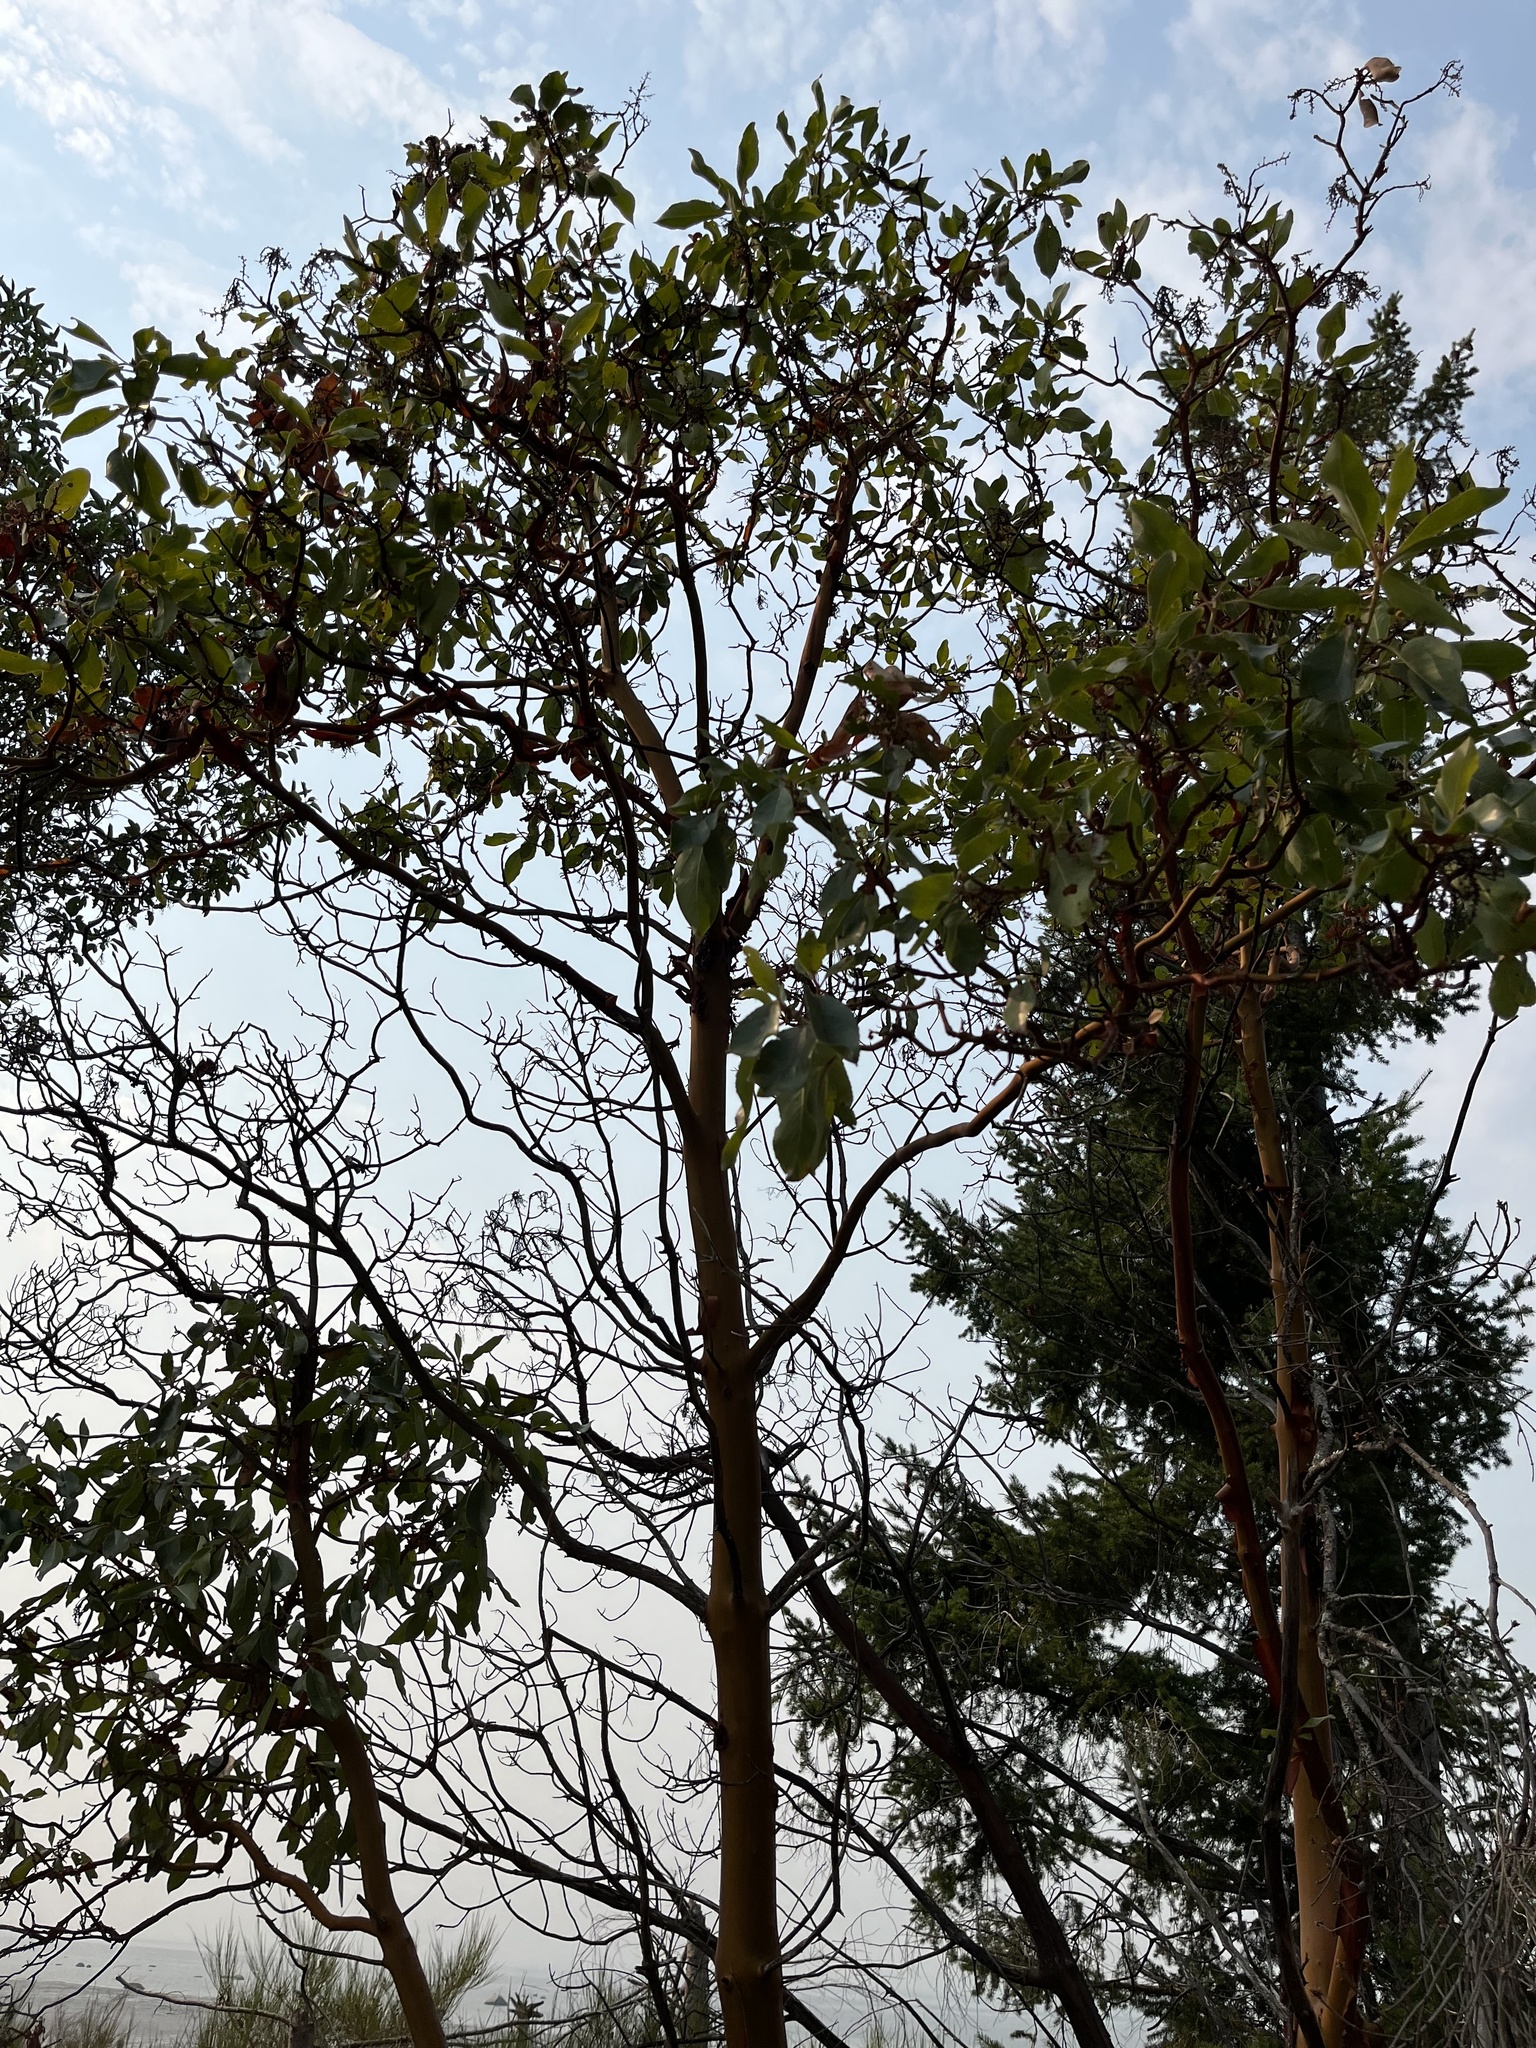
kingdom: Plantae
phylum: Tracheophyta
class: Magnoliopsida
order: Ericales
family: Ericaceae
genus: Arbutus
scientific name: Arbutus menziesii
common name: Pacific madrone
